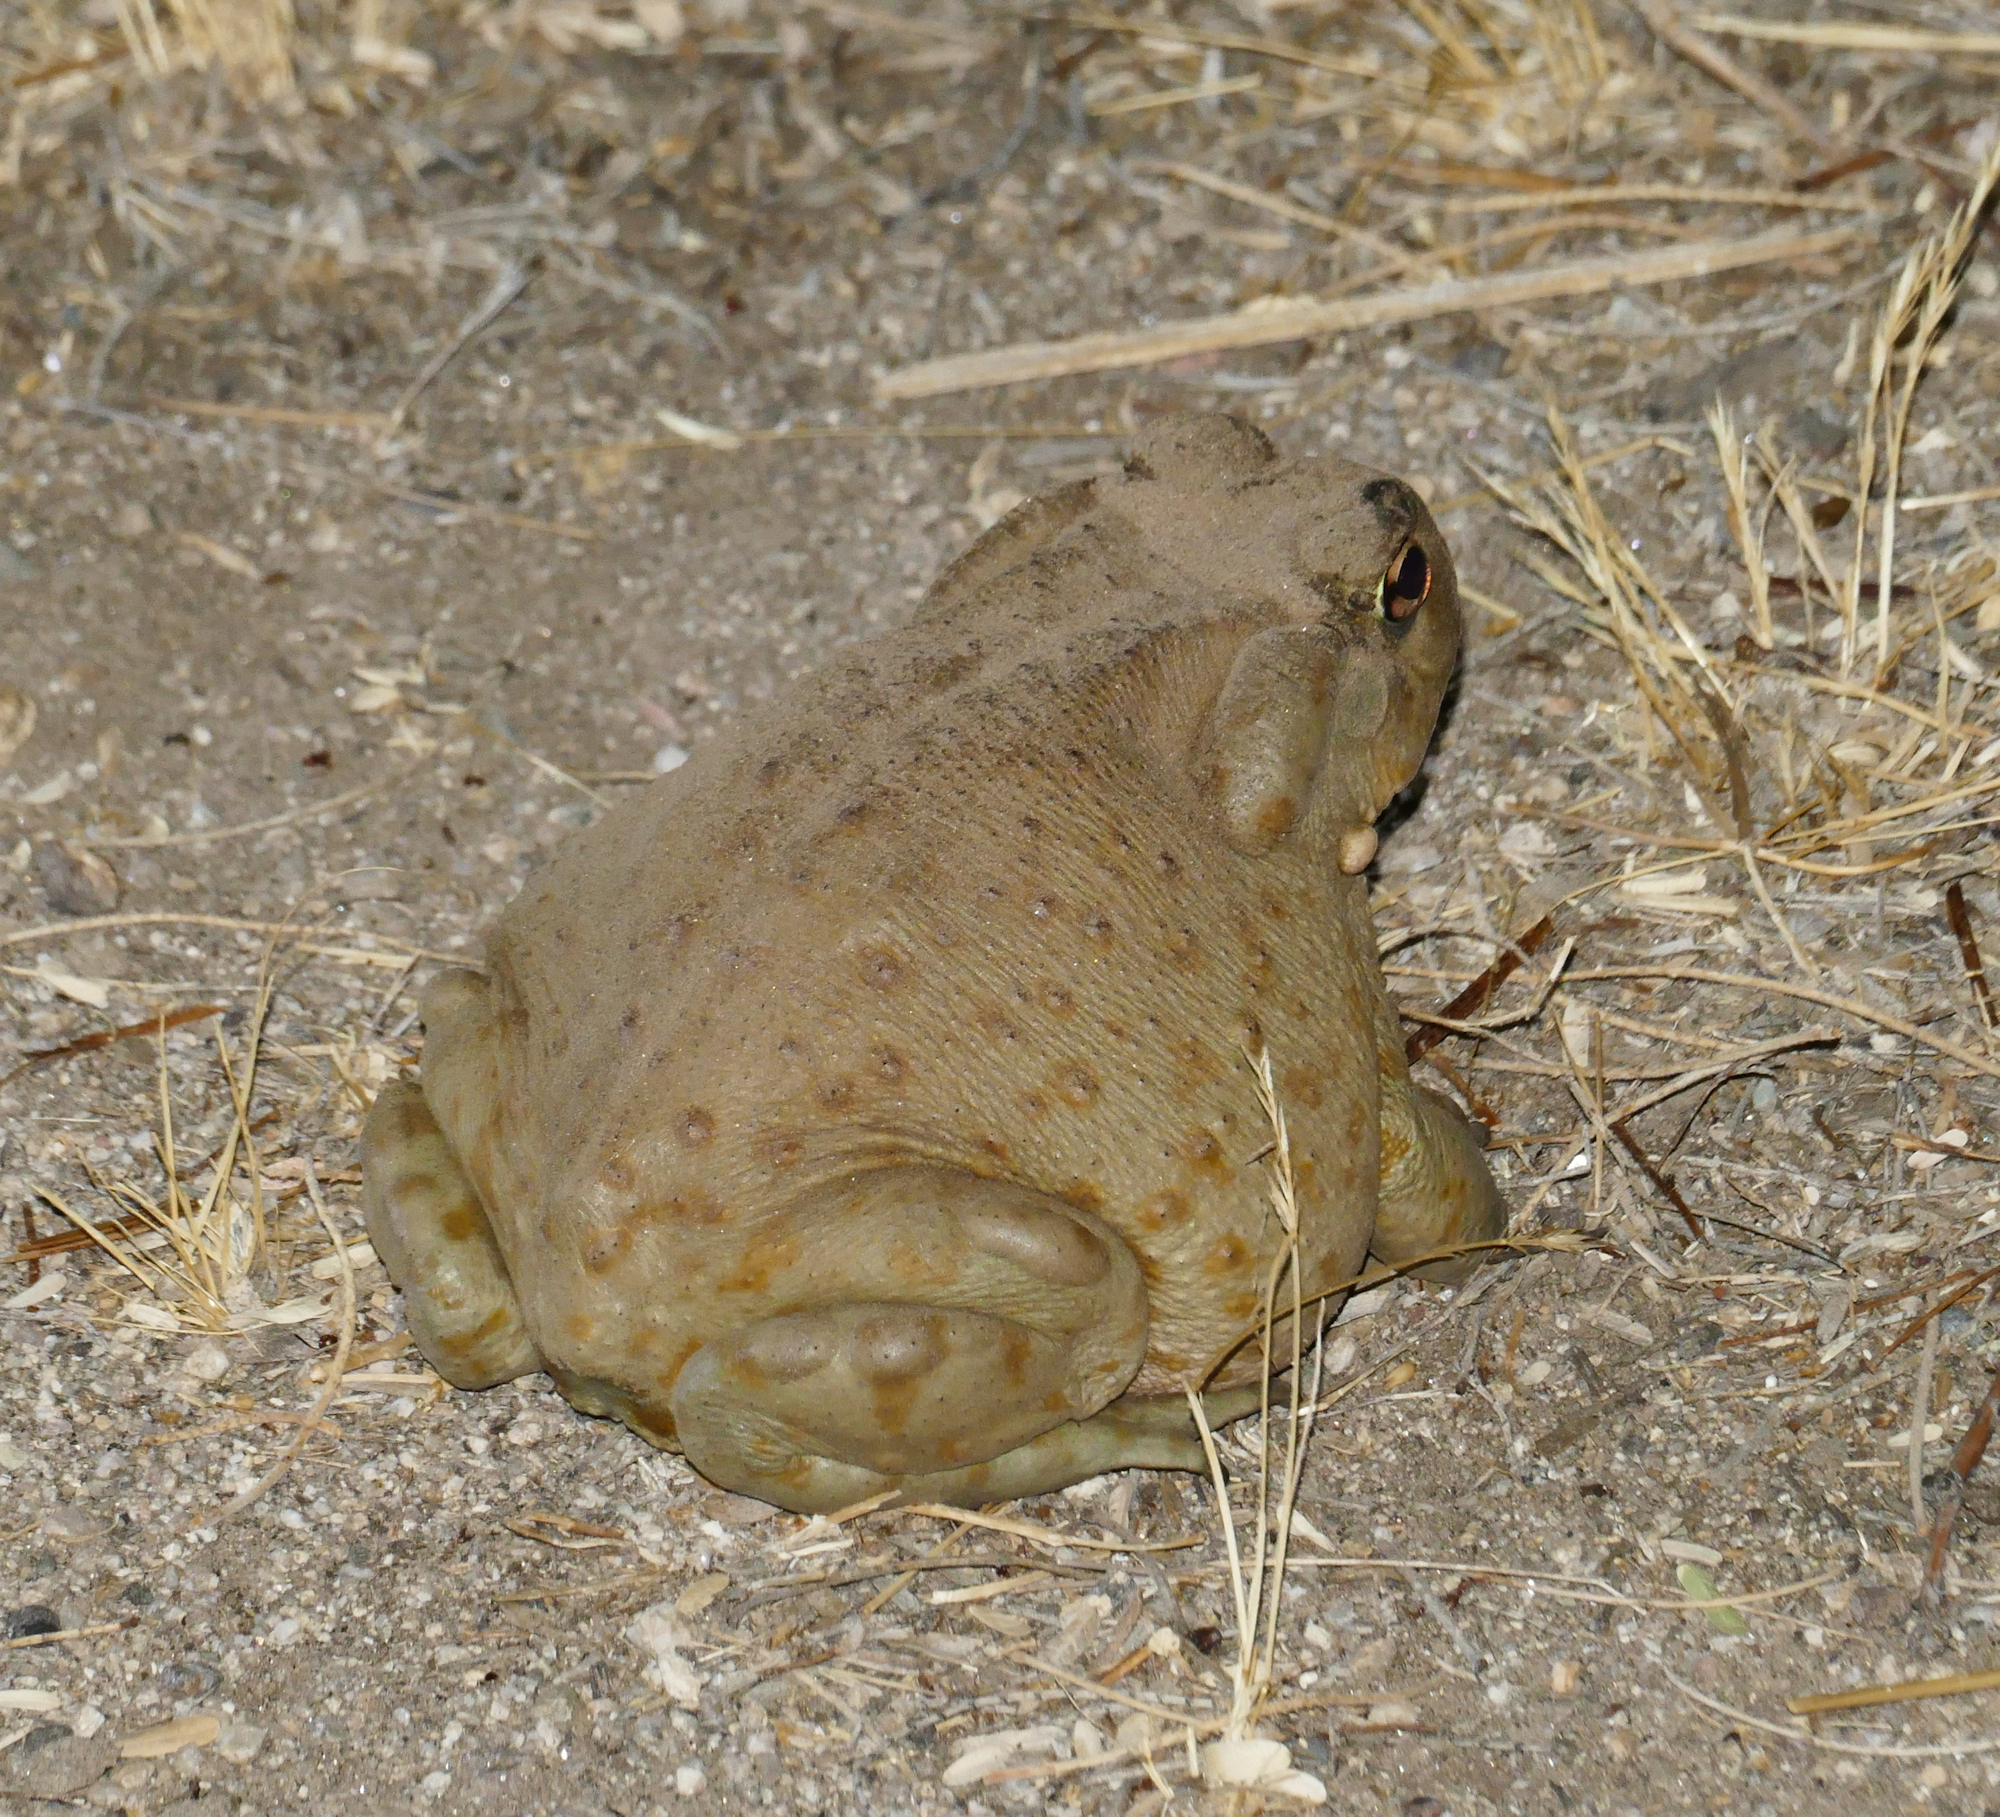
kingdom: Animalia
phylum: Chordata
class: Amphibia
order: Anura
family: Bufonidae
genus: Incilius
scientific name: Incilius alvarius
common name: Sonoran desert toad
